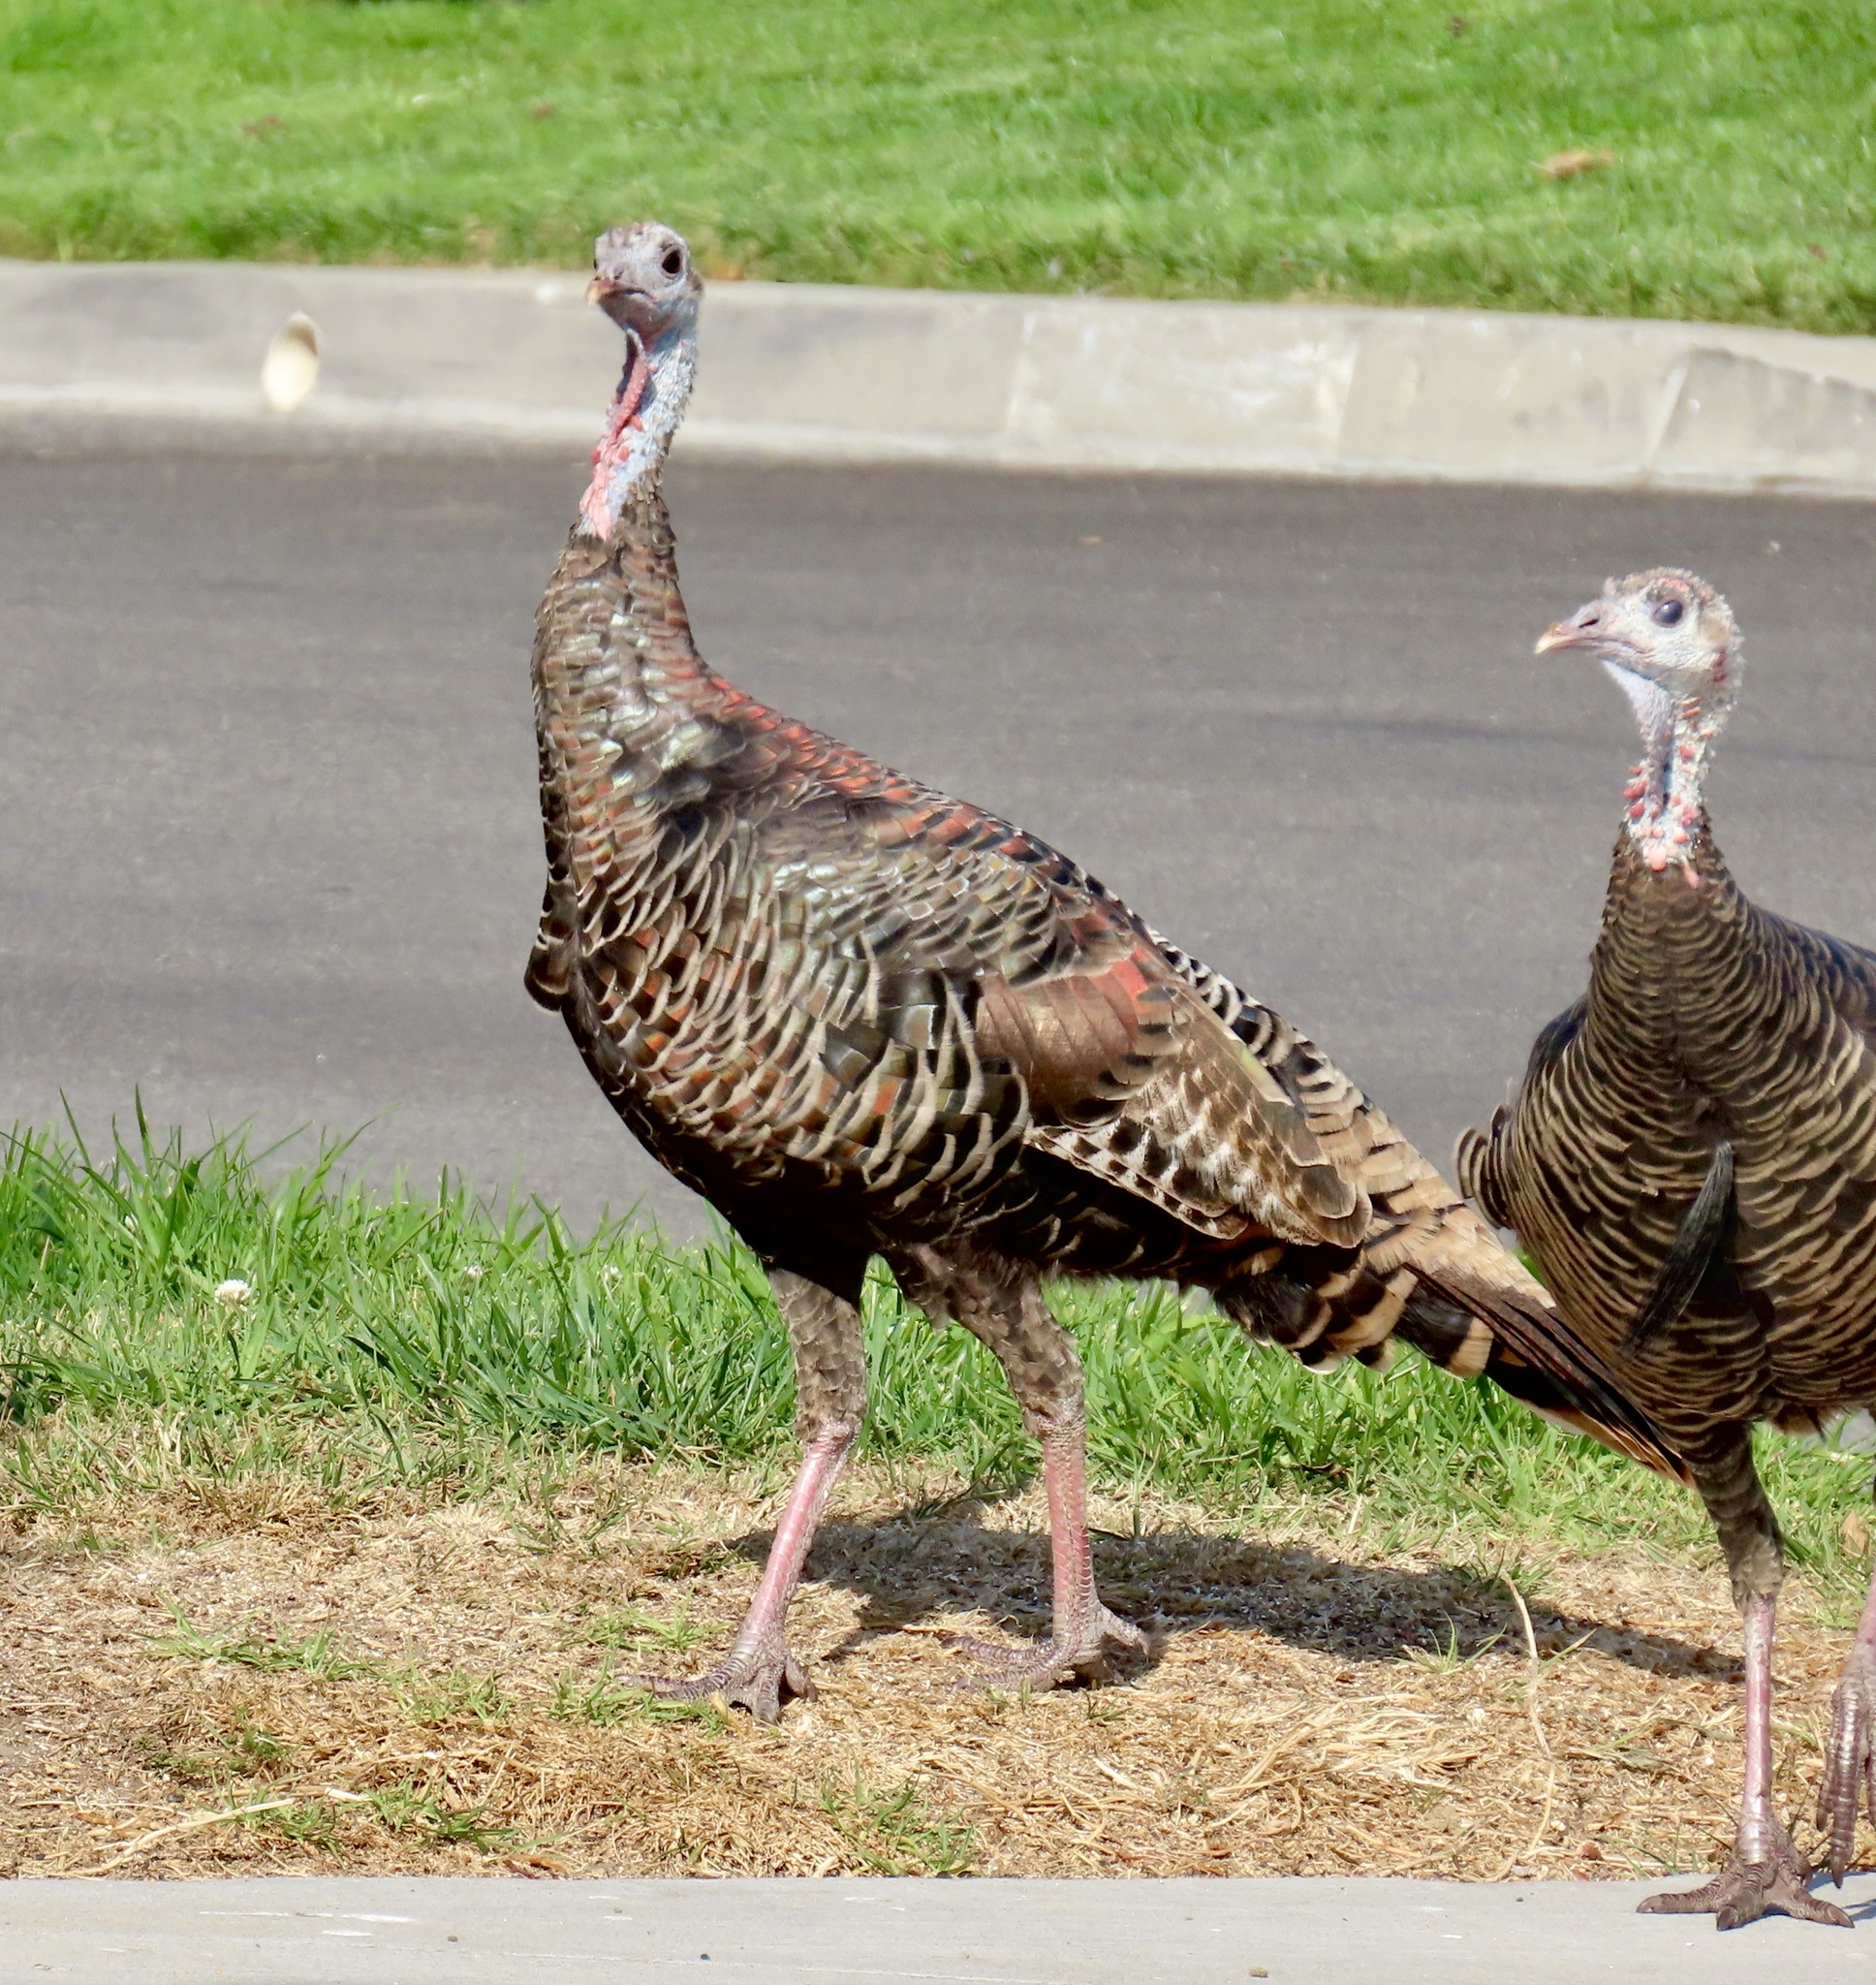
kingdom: Animalia
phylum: Chordata
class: Aves
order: Galliformes
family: Phasianidae
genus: Meleagris
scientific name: Meleagris gallopavo
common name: Wild turkey
